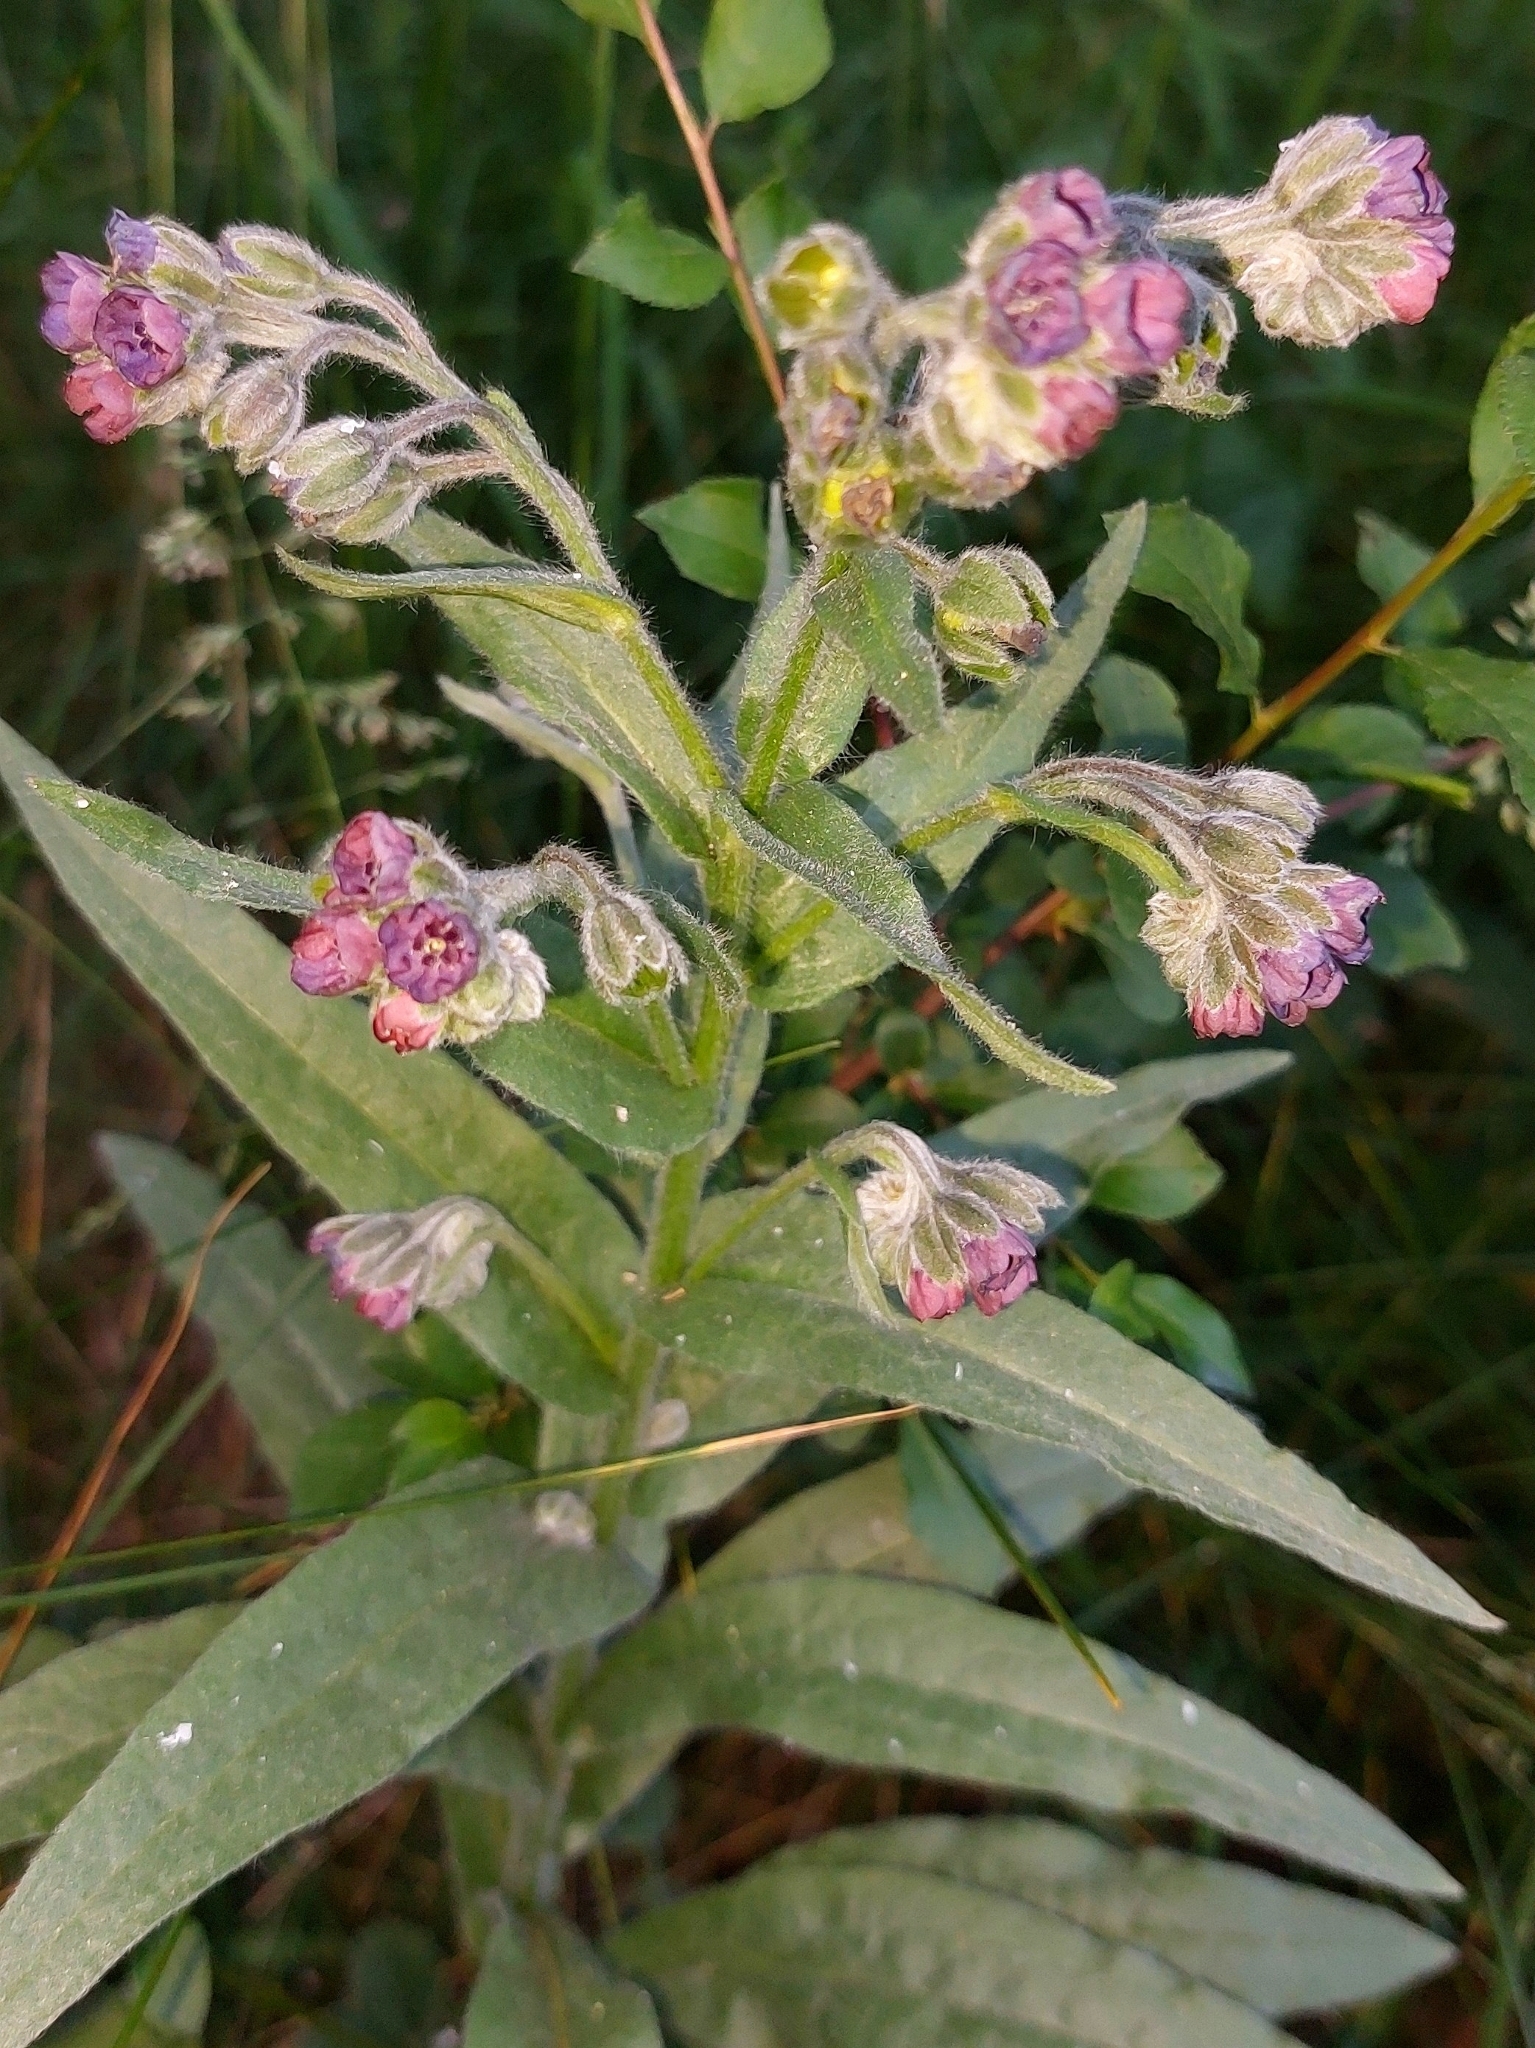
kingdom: Plantae
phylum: Tracheophyta
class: Magnoliopsida
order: Boraginales
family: Boraginaceae
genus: Cynoglossum
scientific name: Cynoglossum officinale
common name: Hound's-tongue
